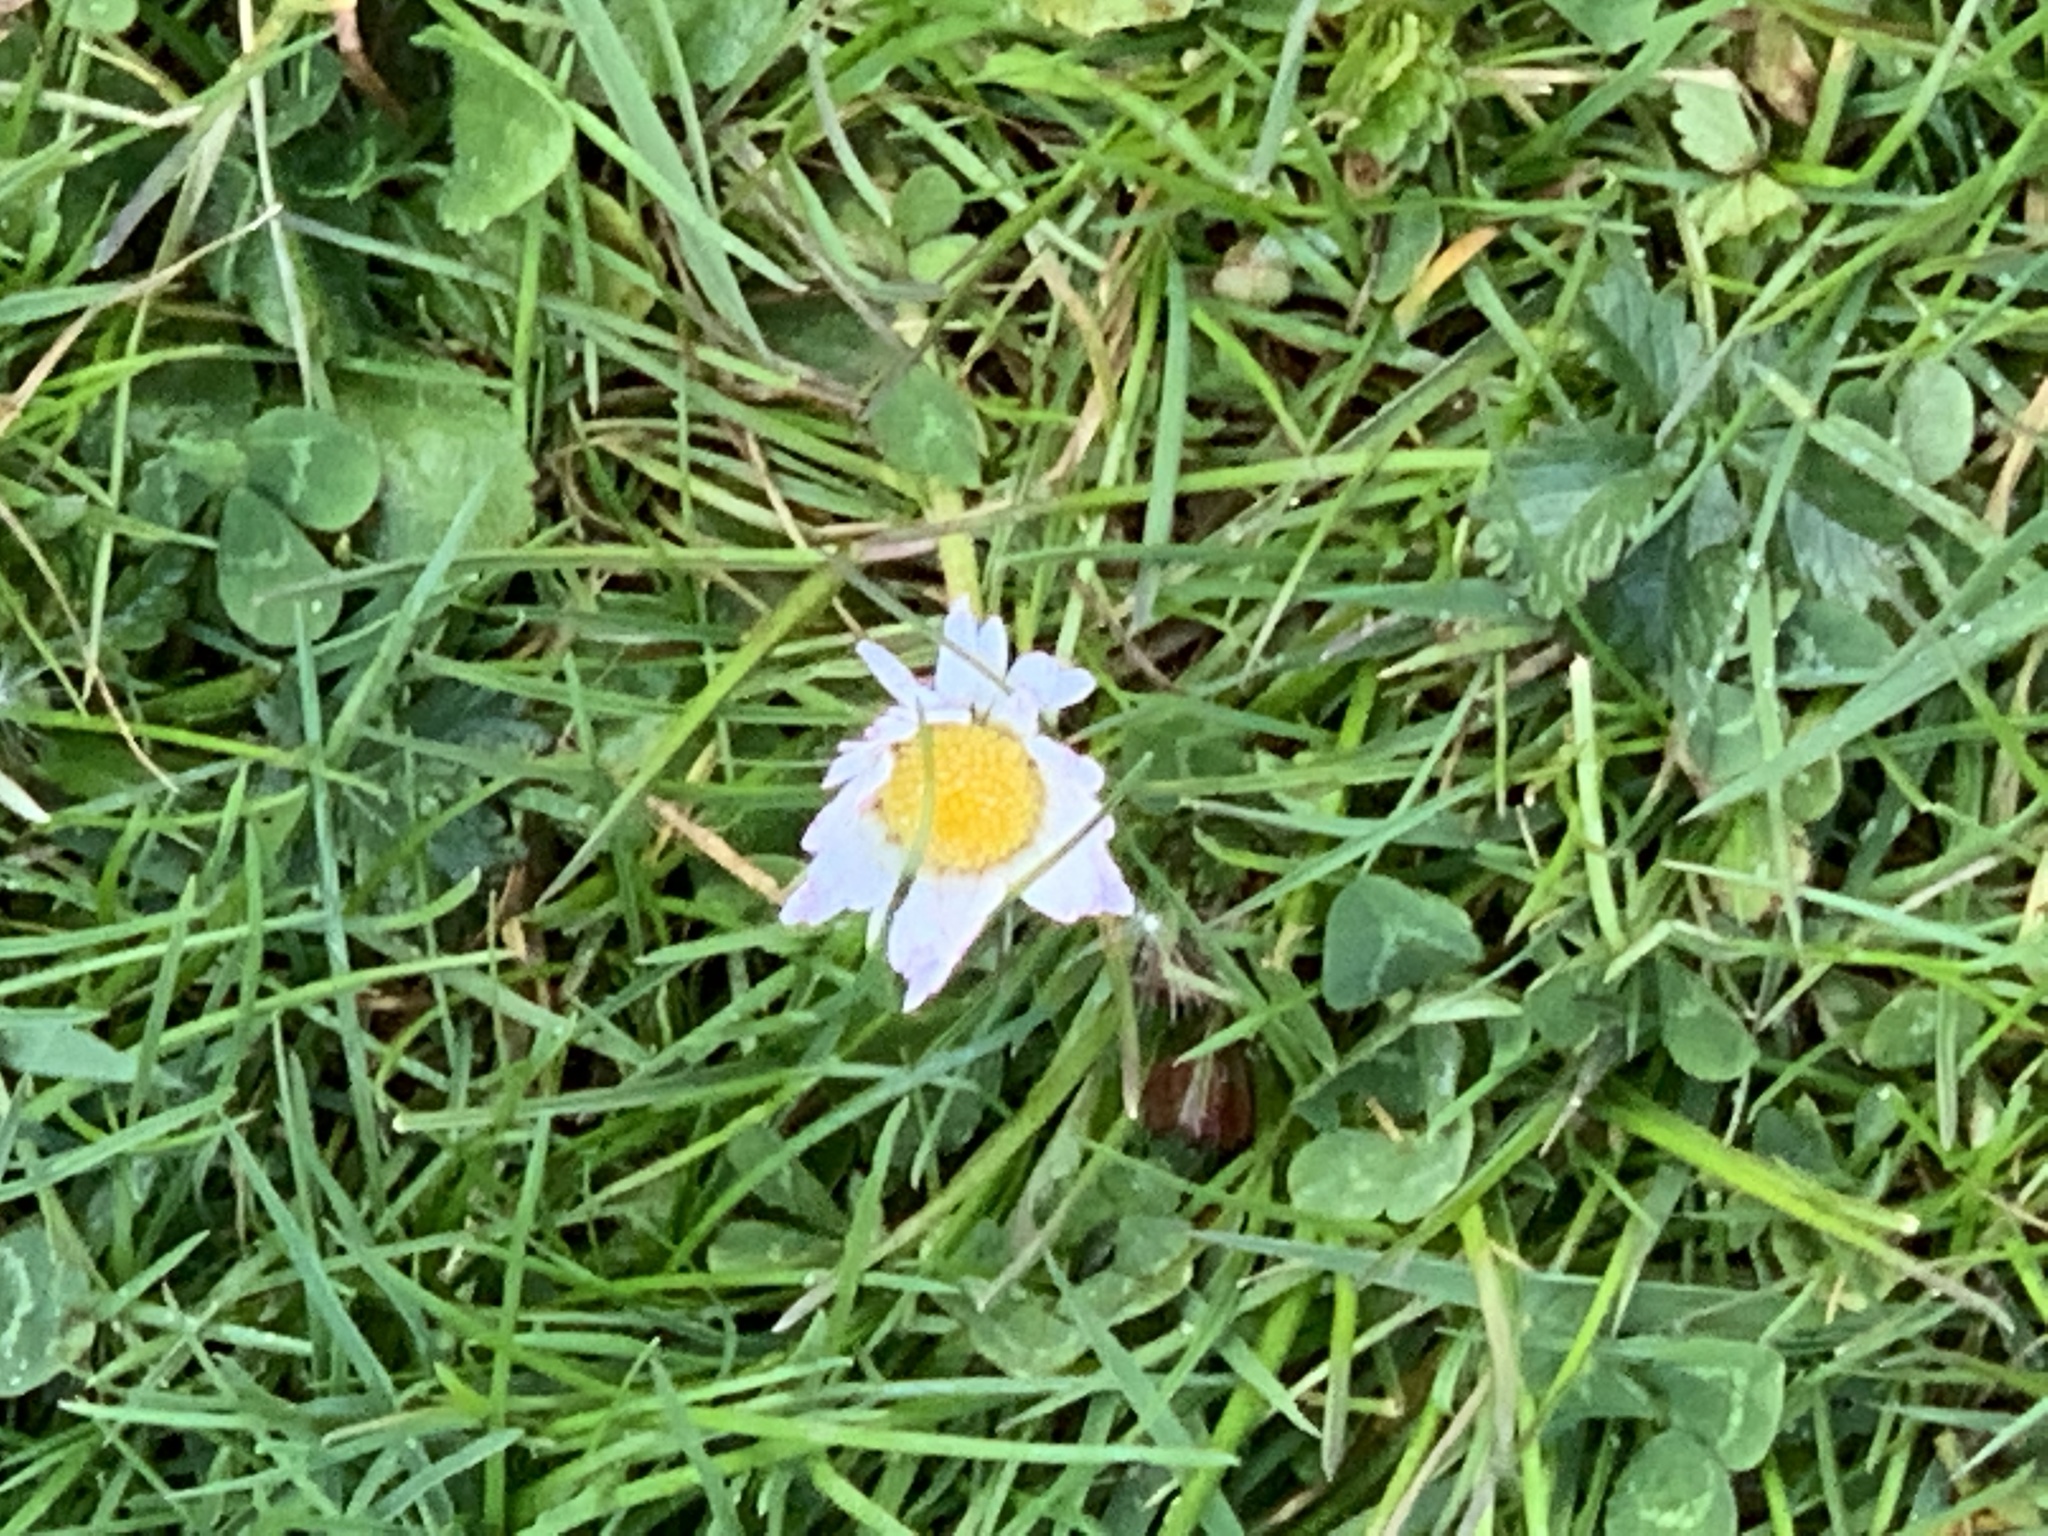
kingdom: Plantae
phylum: Tracheophyta
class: Magnoliopsida
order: Asterales
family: Asteraceae
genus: Bellis
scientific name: Bellis perennis
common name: Lawndaisy
